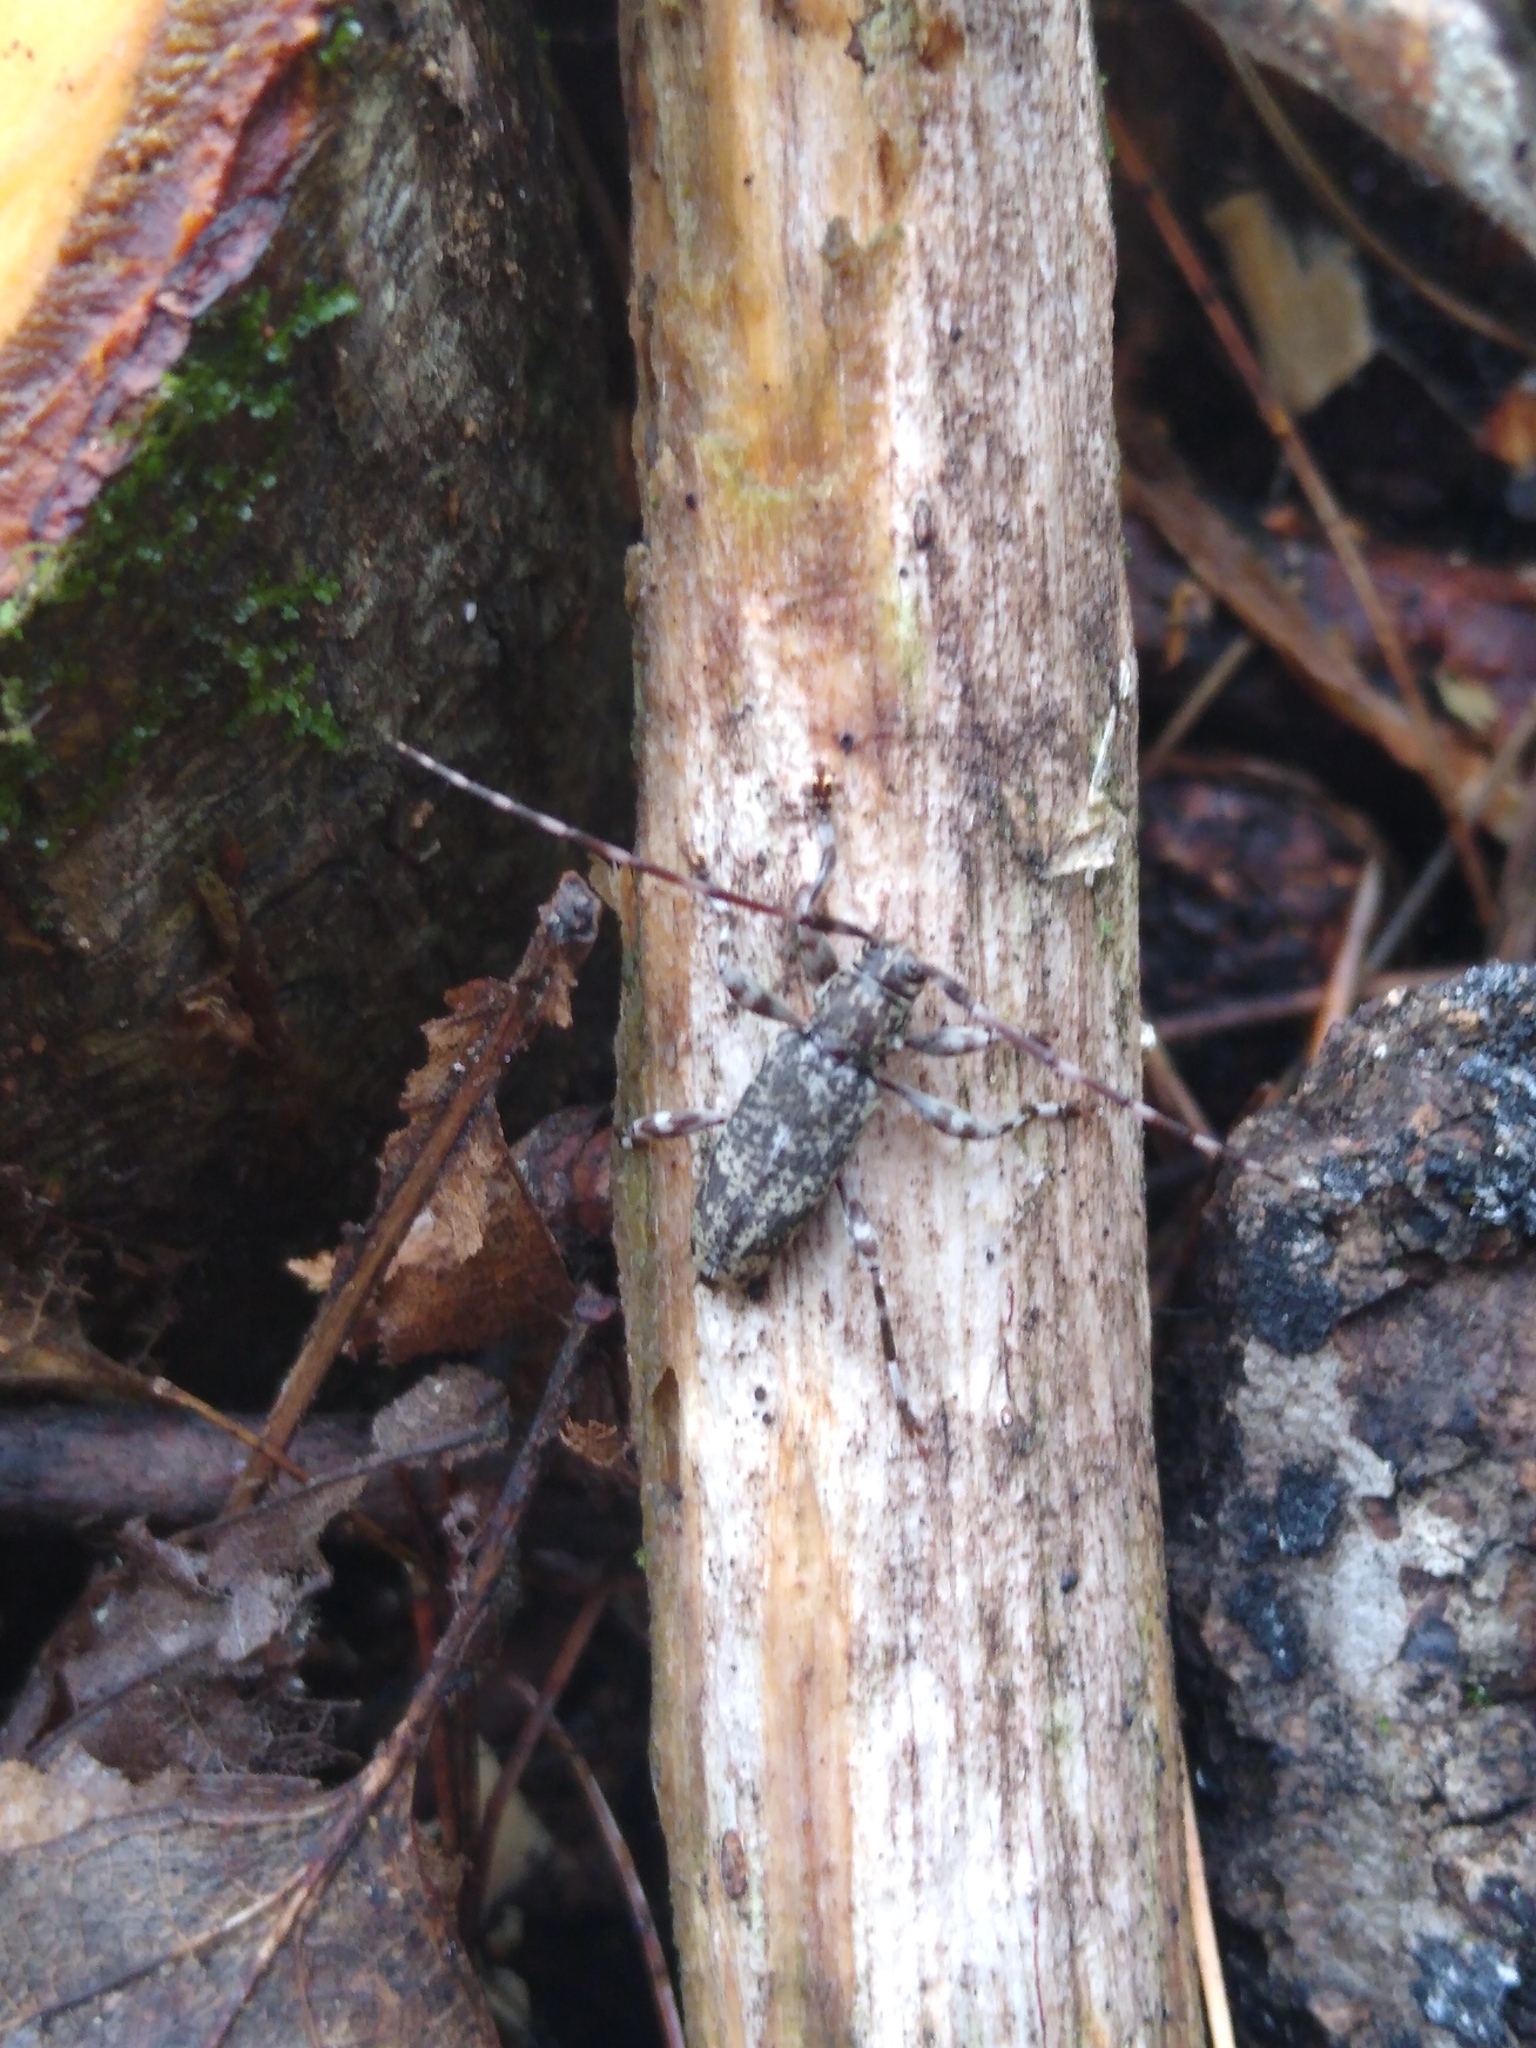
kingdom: Animalia
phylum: Arthropoda
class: Insecta
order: Coleoptera
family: Cerambycidae
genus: Graphisurus
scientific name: Graphisurus fasciatus
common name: Banded graphisurus
